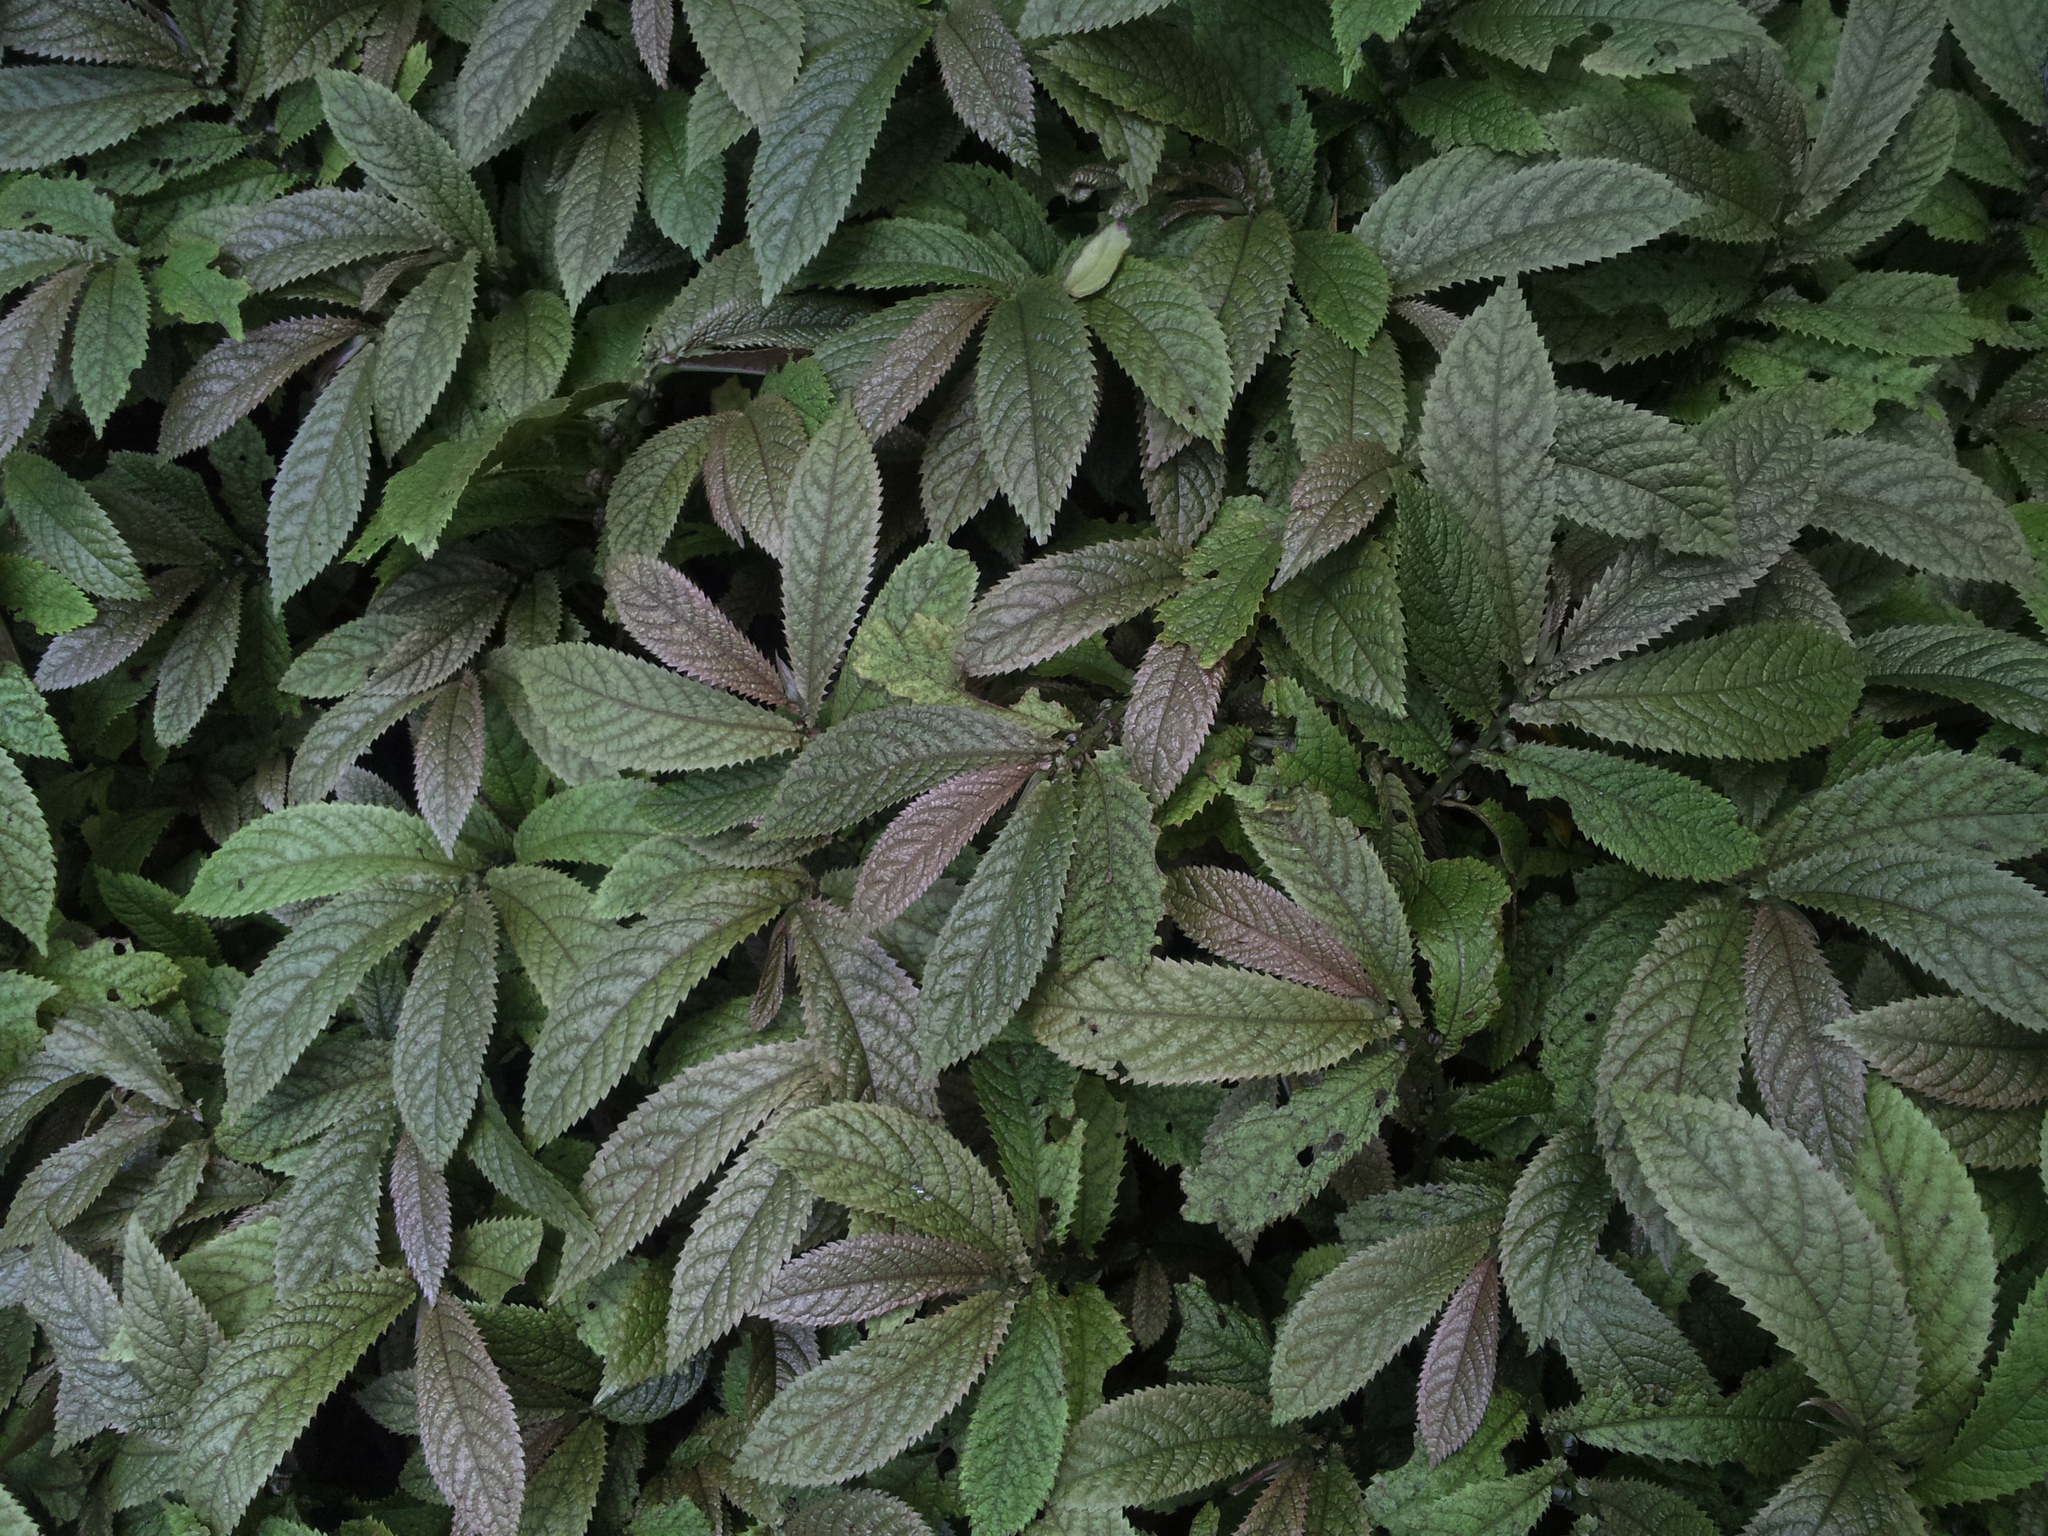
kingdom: Plantae
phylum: Tracheophyta
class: Magnoliopsida
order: Rosales
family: Urticaceae
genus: Elatostema
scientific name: Elatostema rugosum
